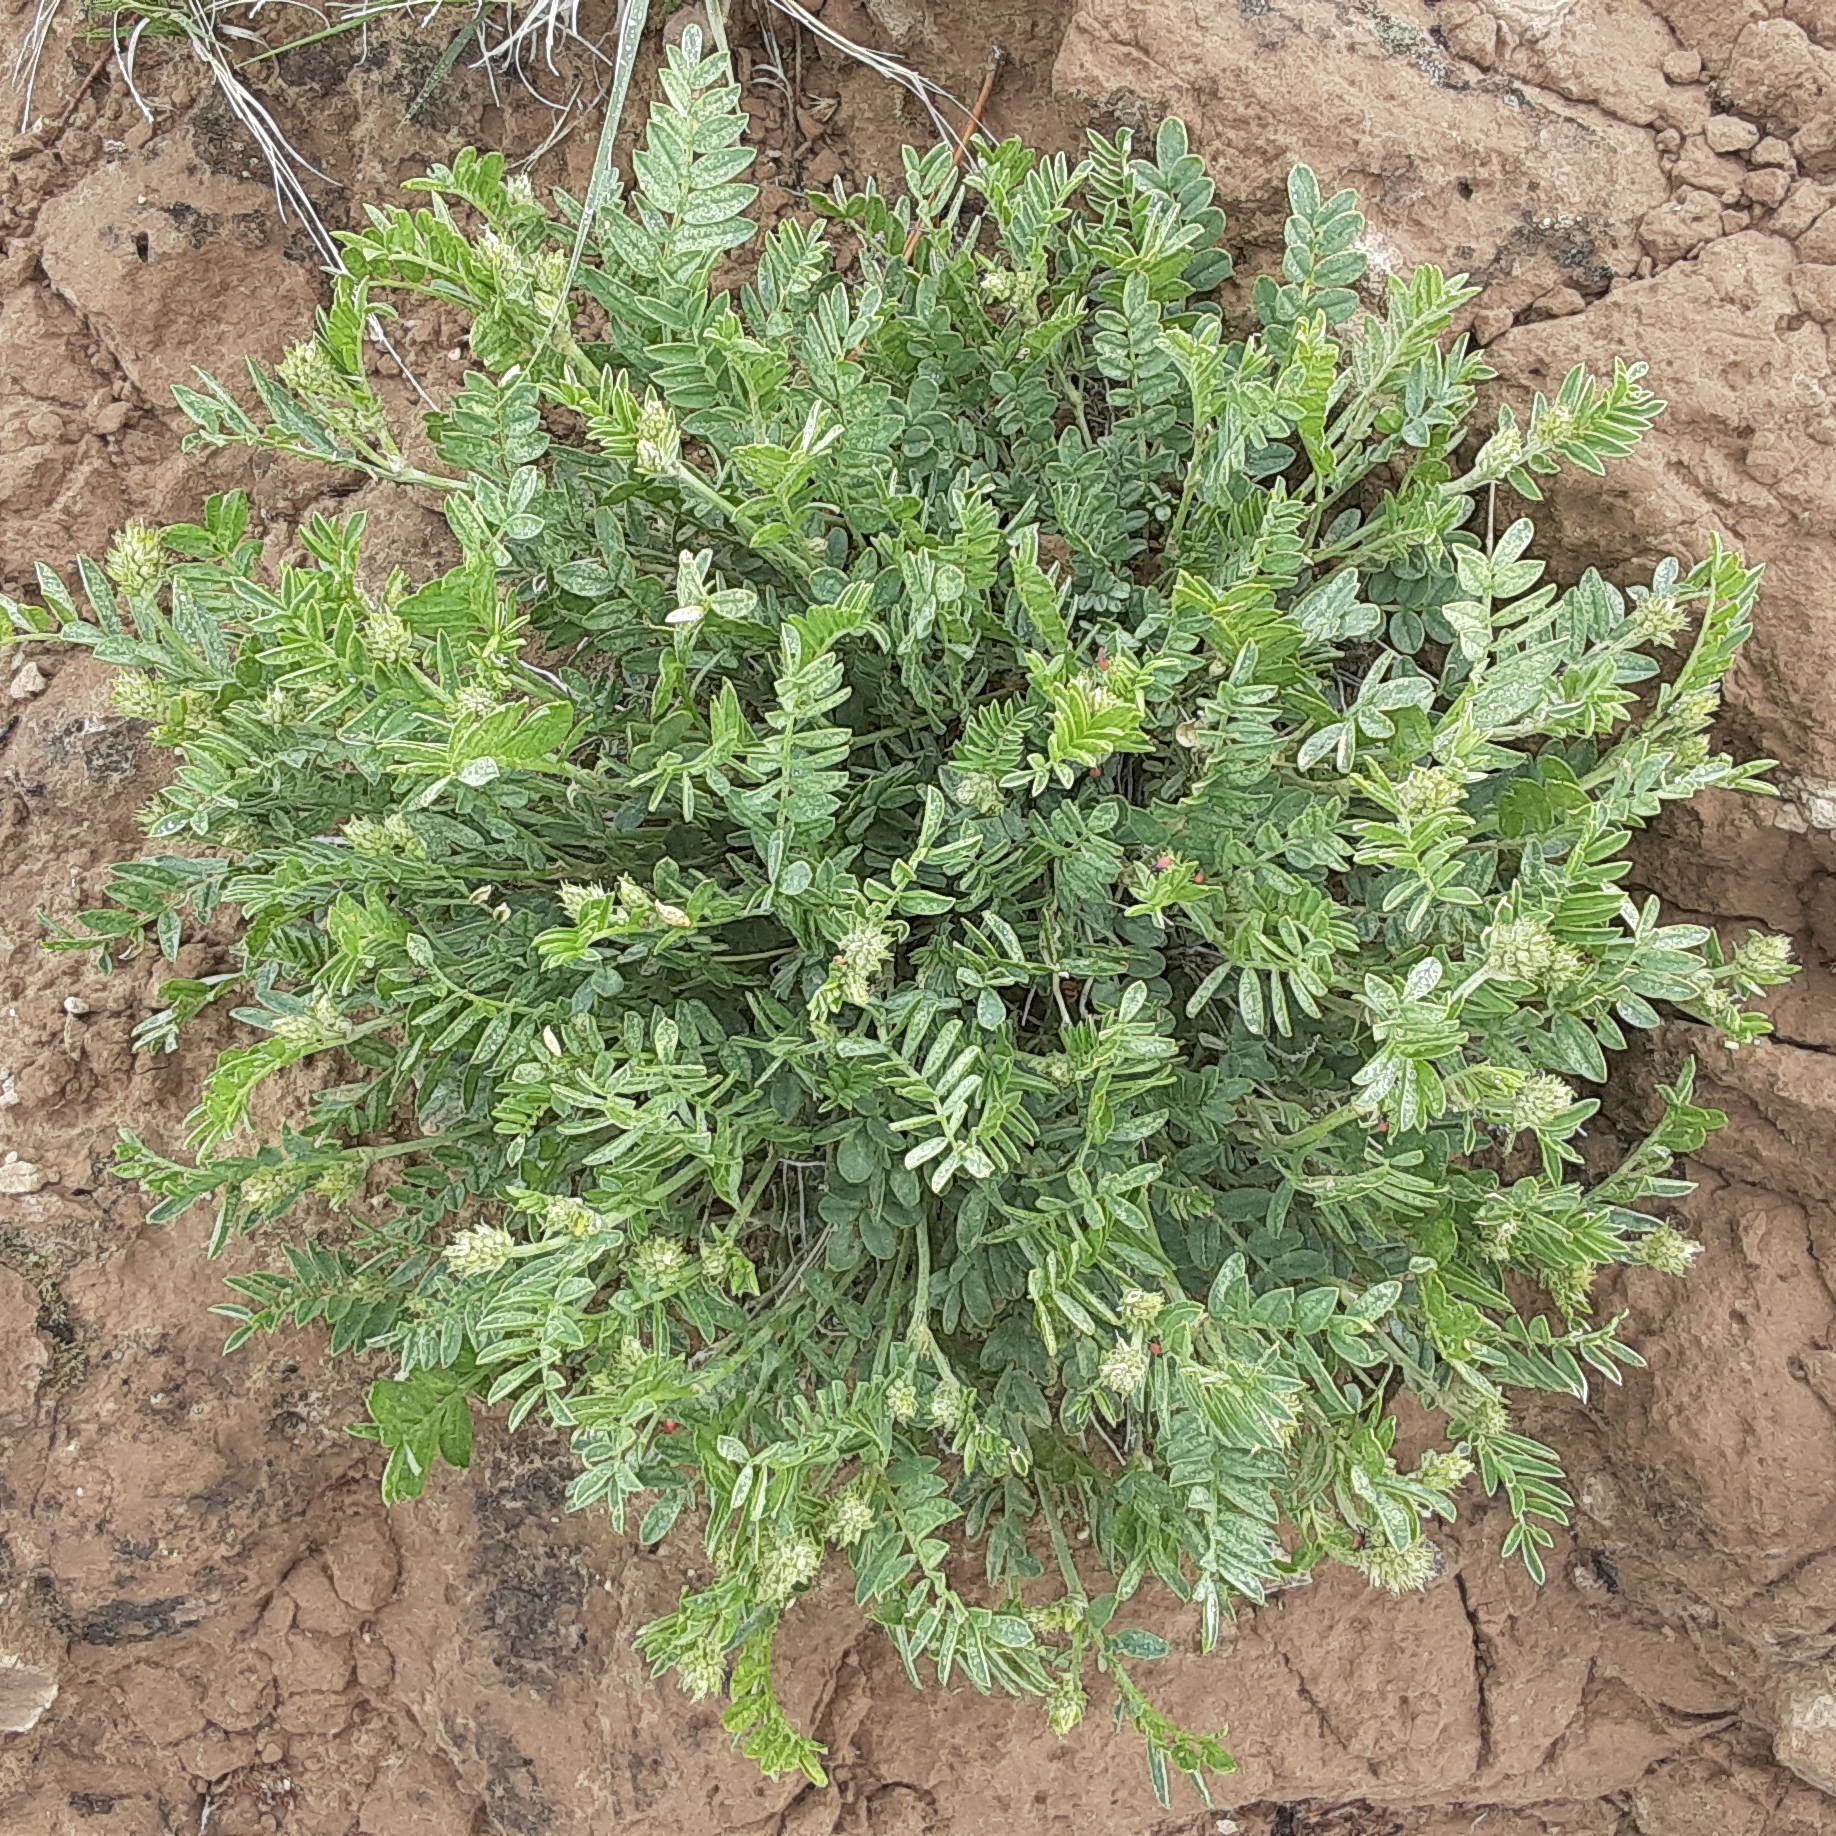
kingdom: Plantae
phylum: Tracheophyta
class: Magnoliopsida
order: Fabales
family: Fabaceae
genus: Astragalus
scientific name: Astragalus laxmannii
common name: Laxmann's milk-vetch
